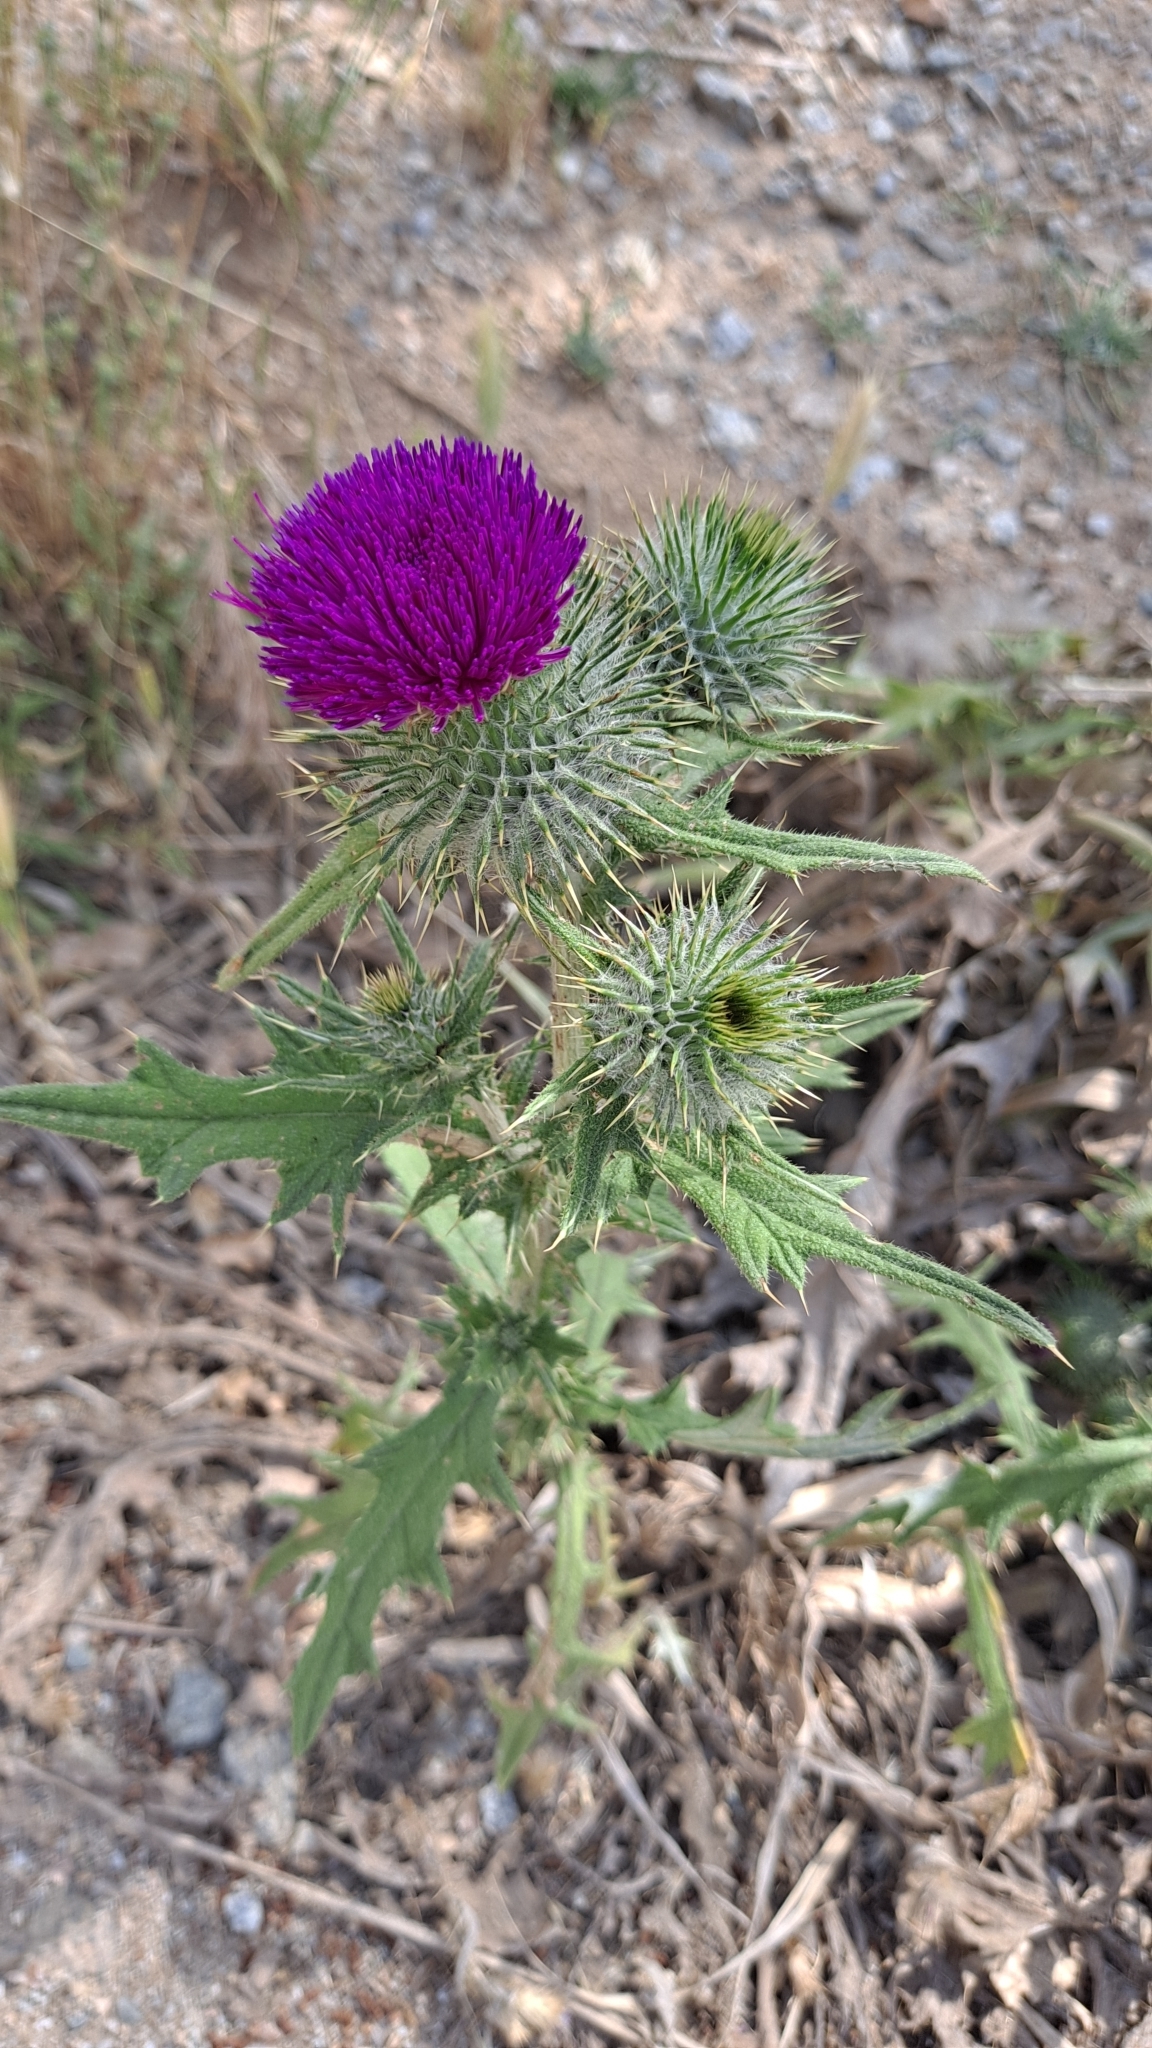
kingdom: Plantae
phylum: Tracheophyta
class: Magnoliopsida
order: Asterales
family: Asteraceae
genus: Cirsium
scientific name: Cirsium vulgare
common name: Bull thistle
